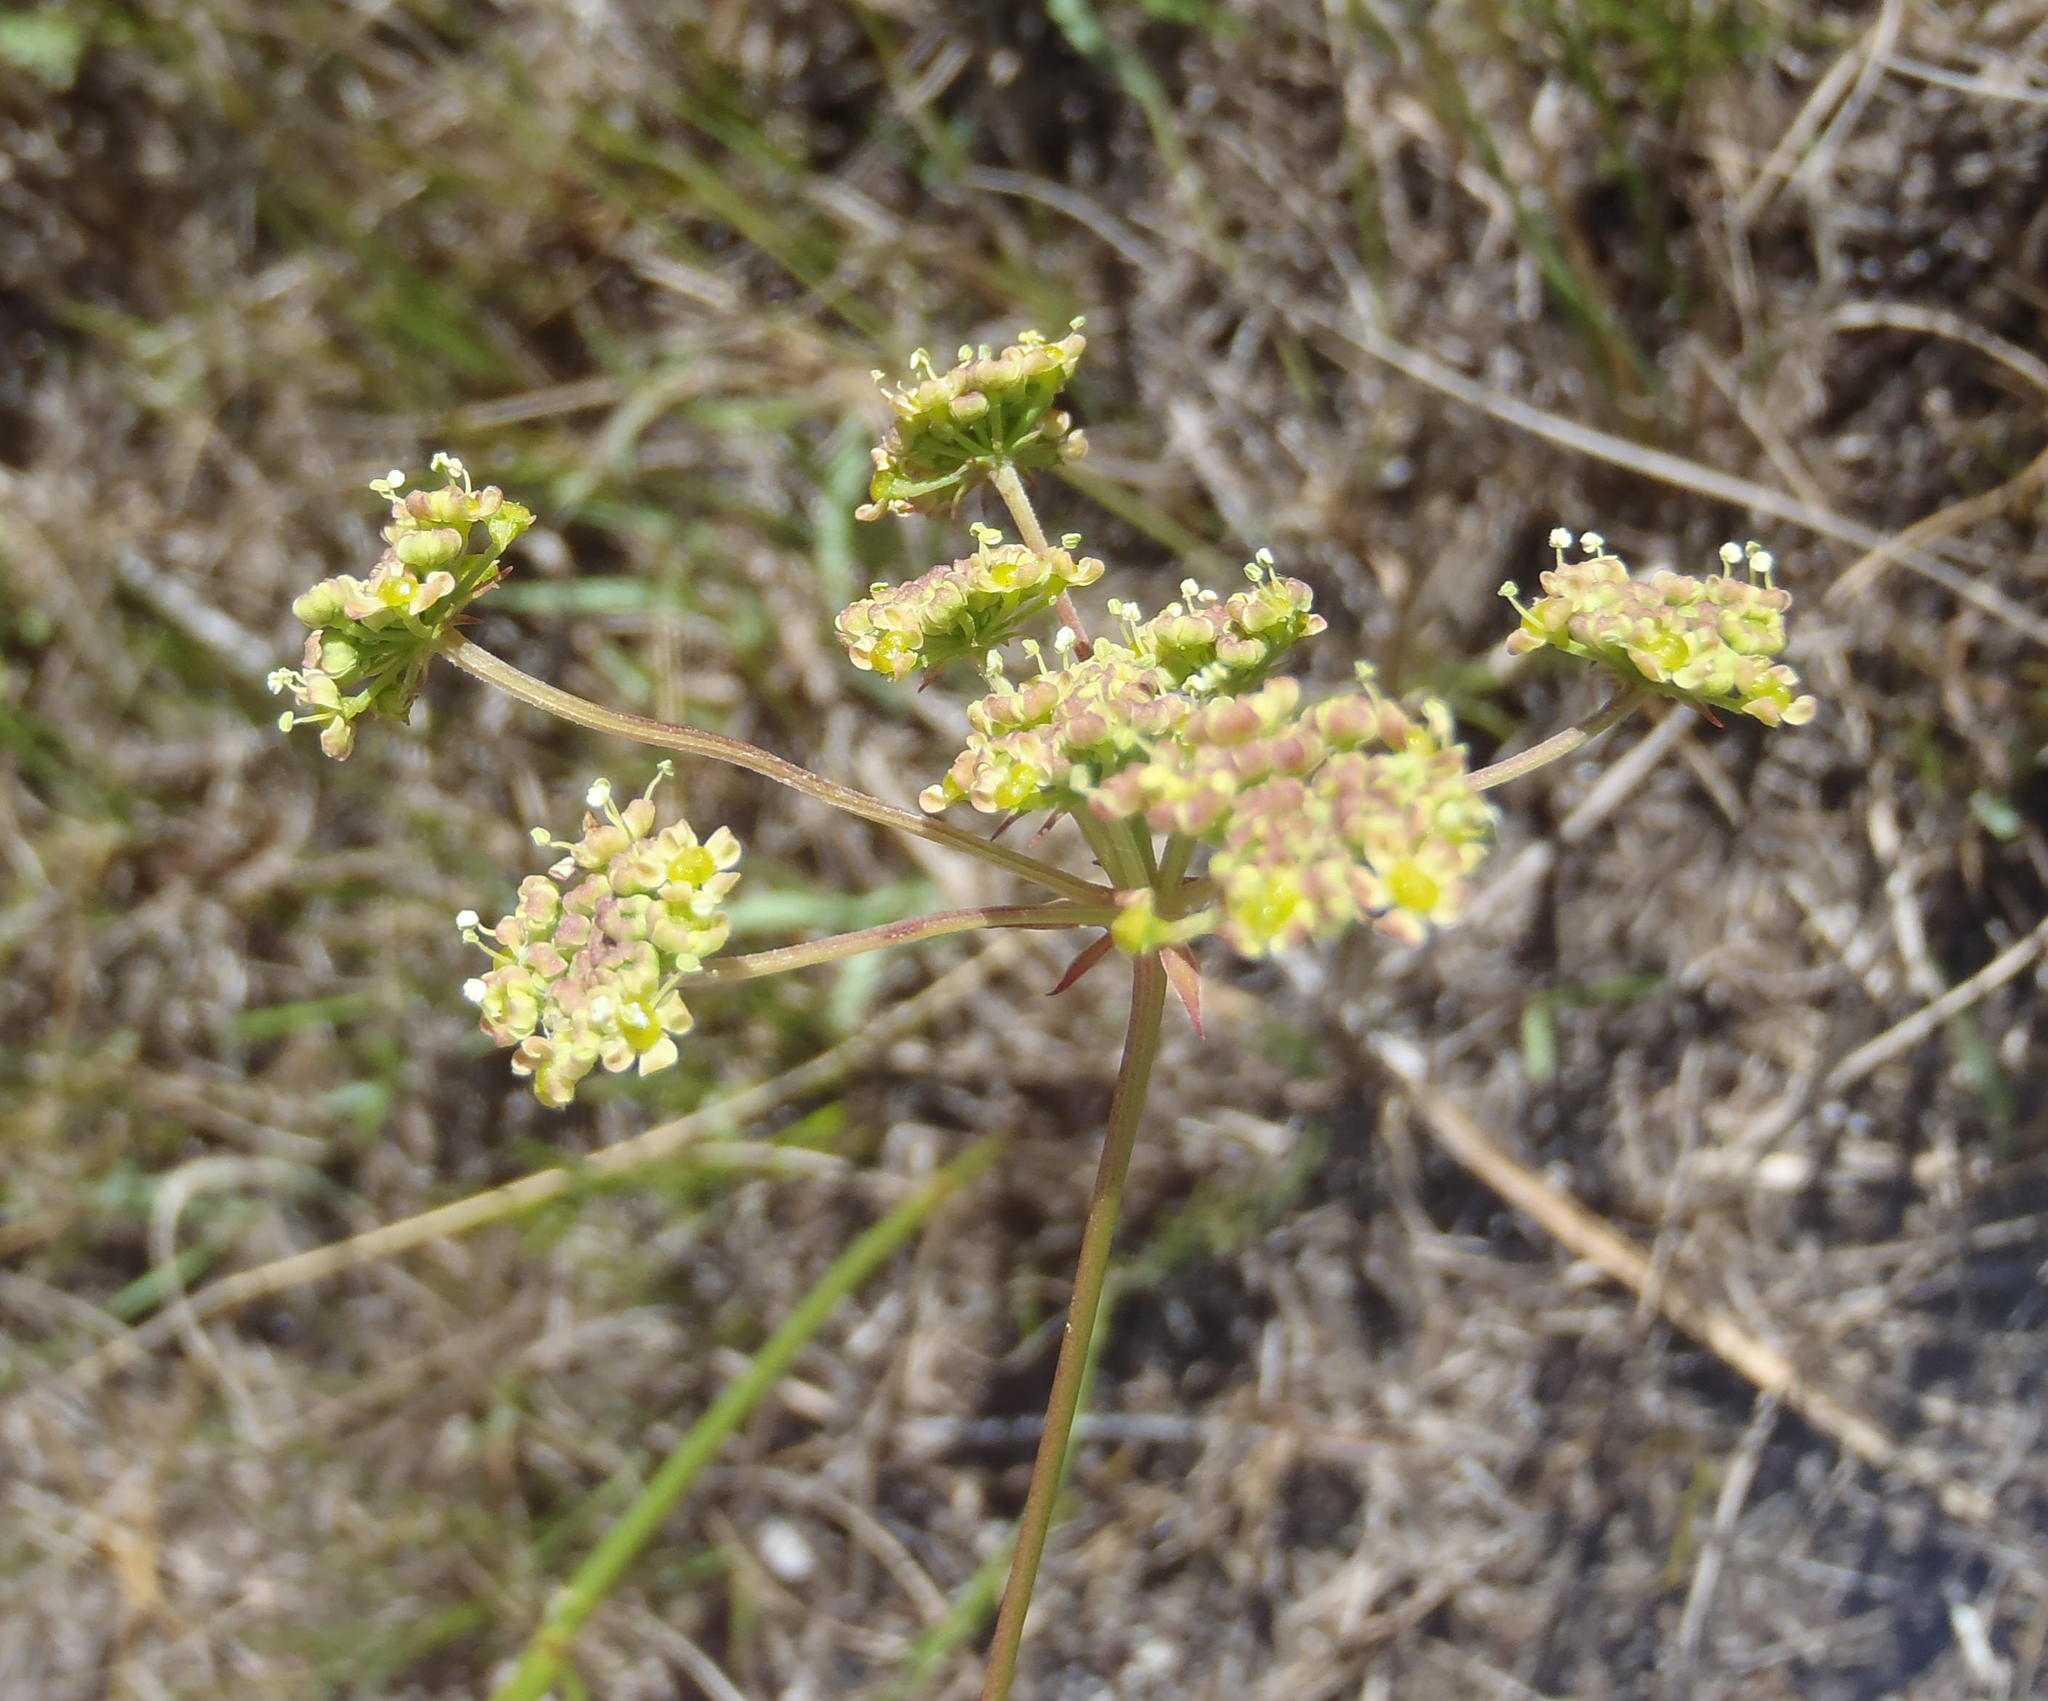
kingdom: Plantae
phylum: Tracheophyta
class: Magnoliopsida
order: Apiales
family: Apiaceae
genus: Nanobubon
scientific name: Nanobubon hypogaeum
